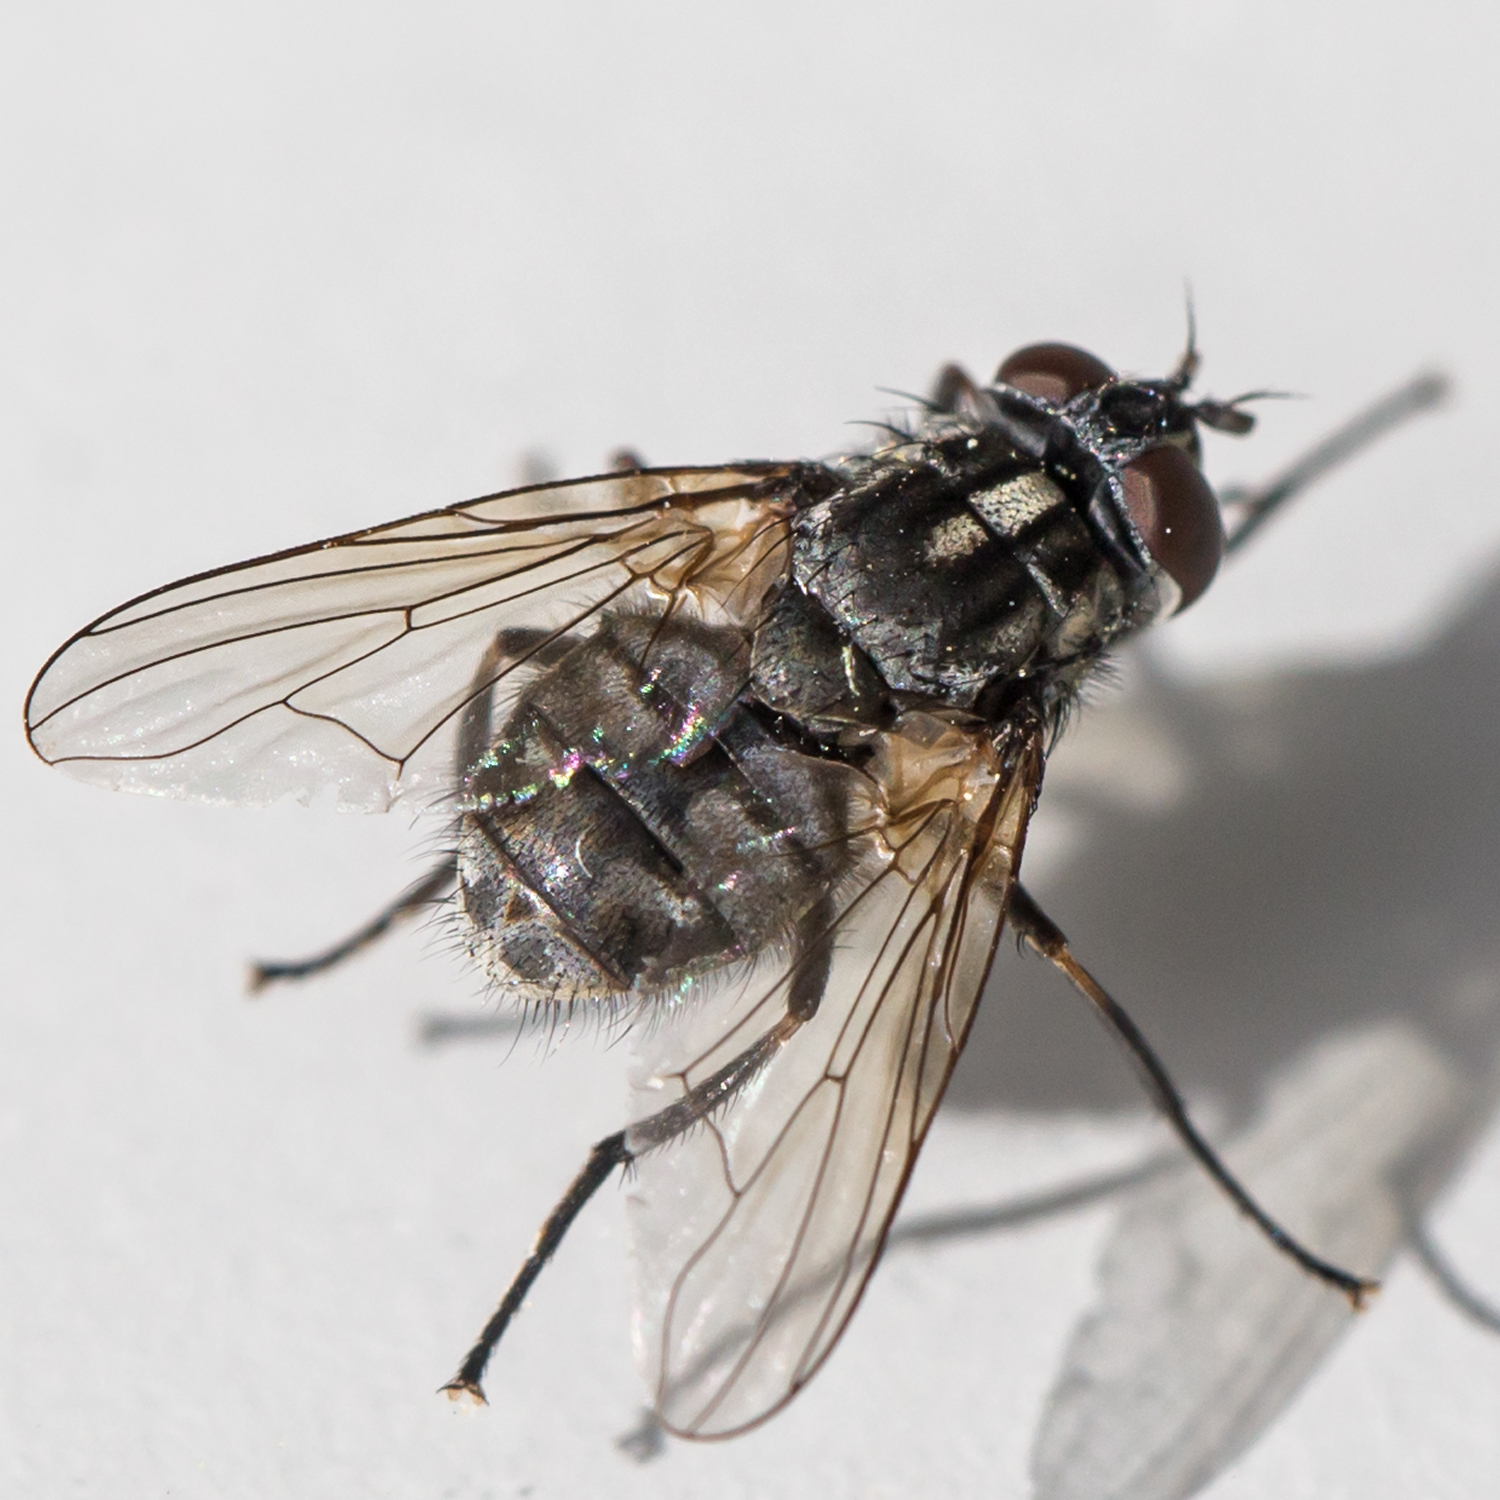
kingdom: Animalia
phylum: Arthropoda
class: Insecta
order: Diptera
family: Muscidae
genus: Stomoxys
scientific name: Stomoxys calcitrans
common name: Stable fly
